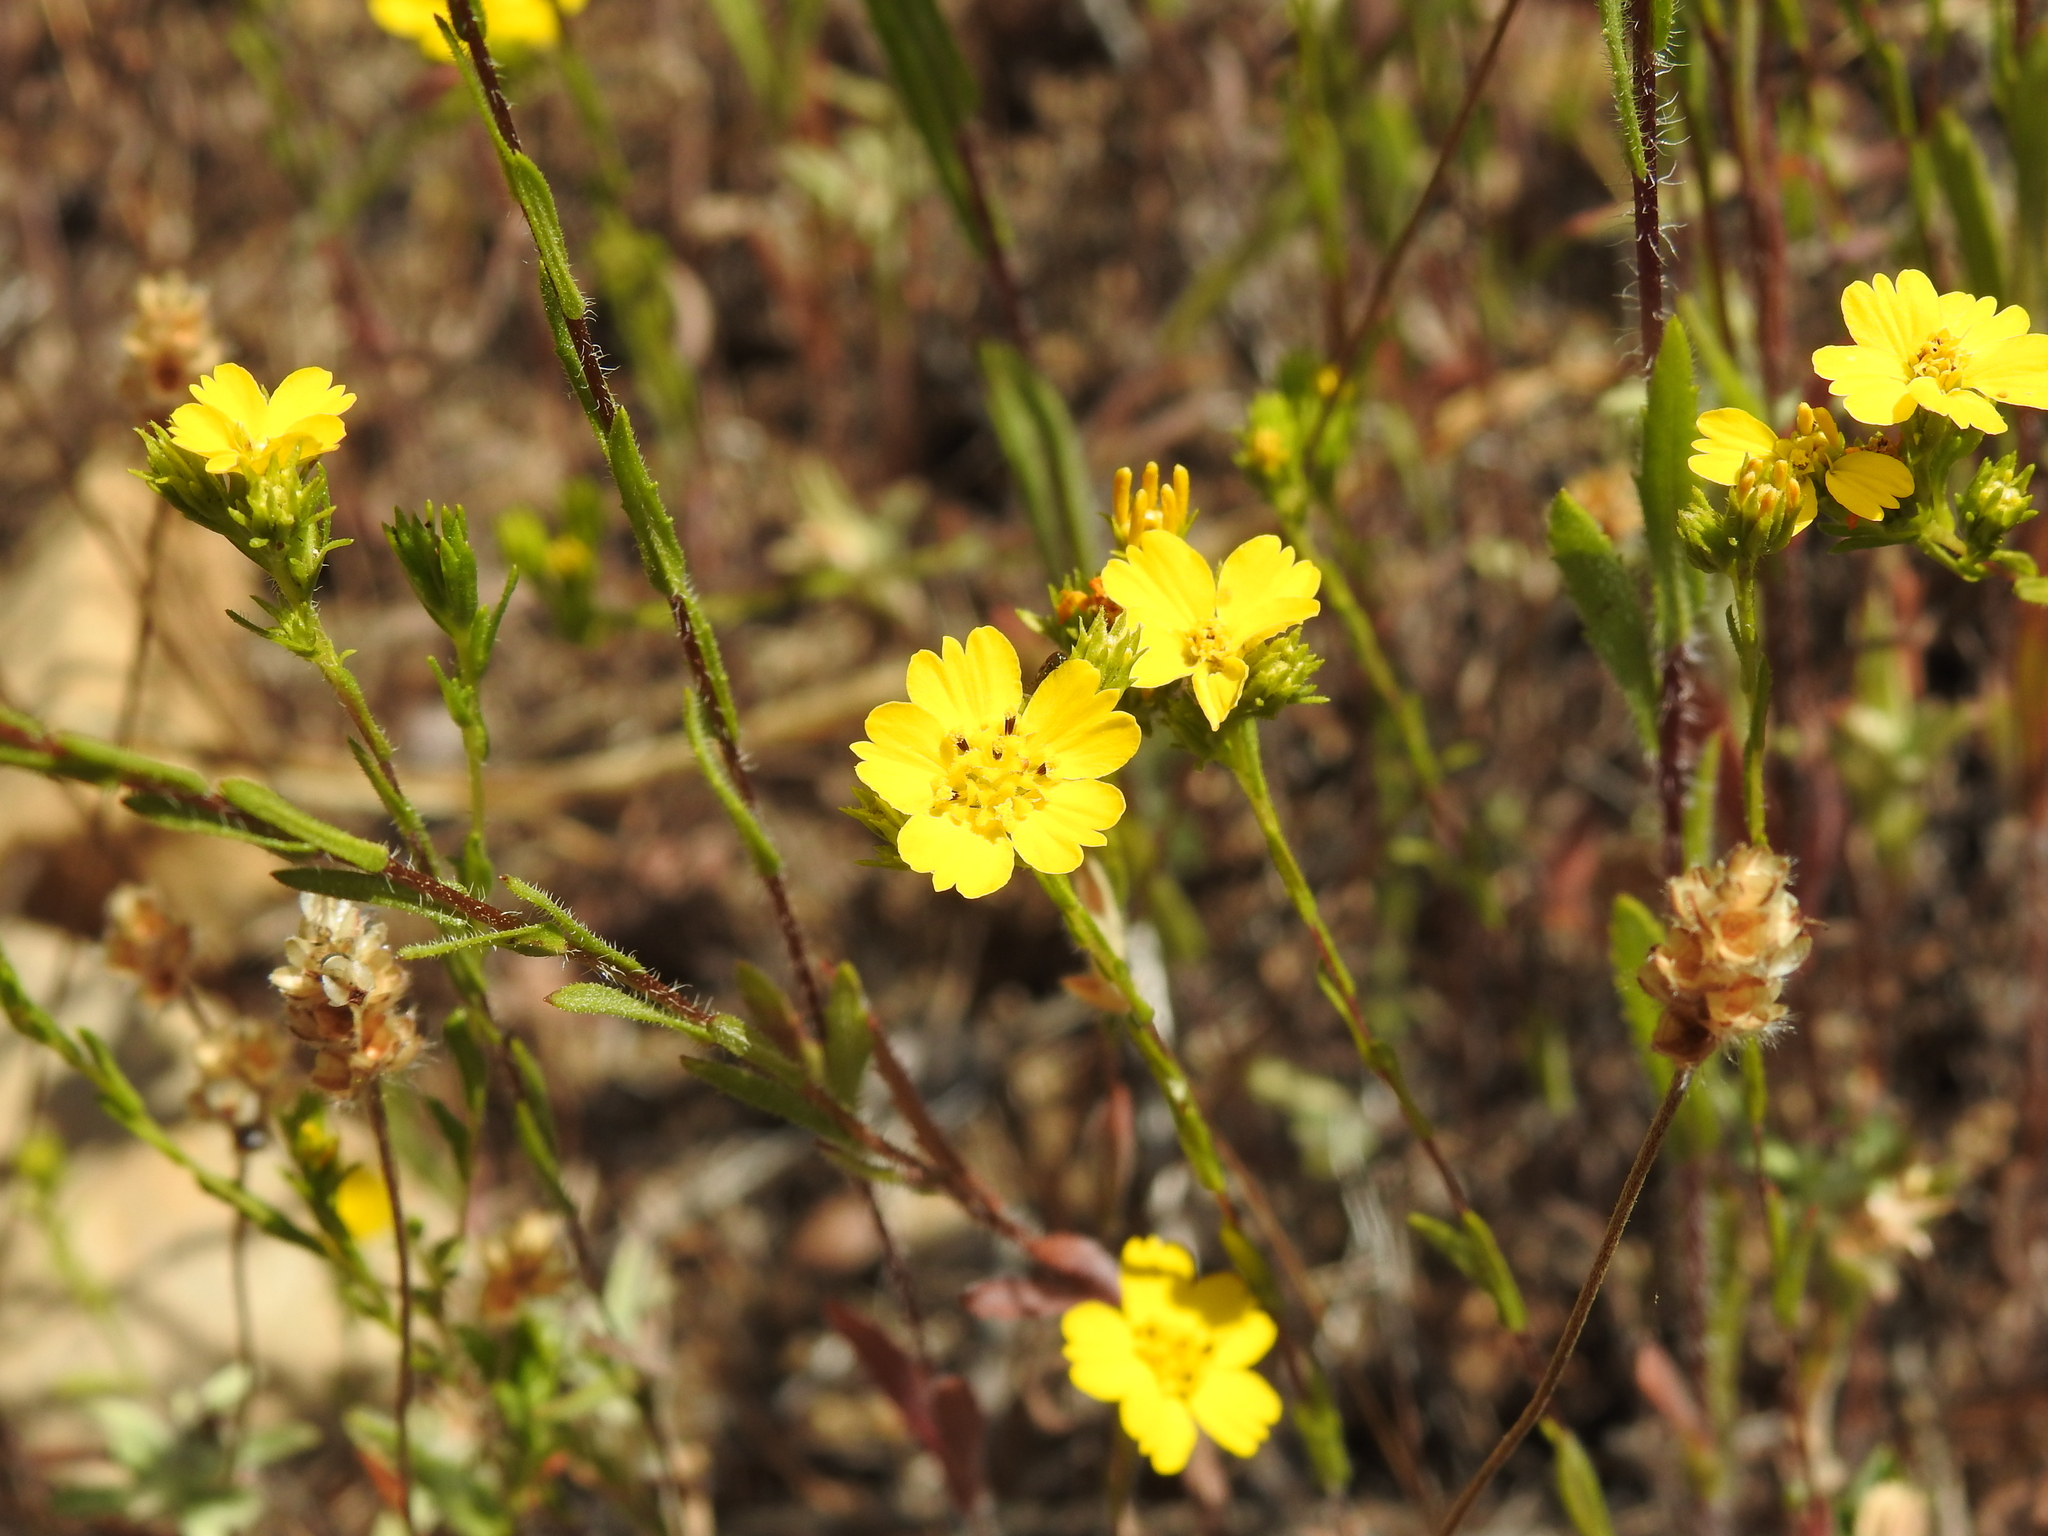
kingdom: Plantae
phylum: Tracheophyta
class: Magnoliopsida
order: Asterales
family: Asteraceae
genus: Deinandra
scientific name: Deinandra fasciculata
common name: Clustered tarweed
